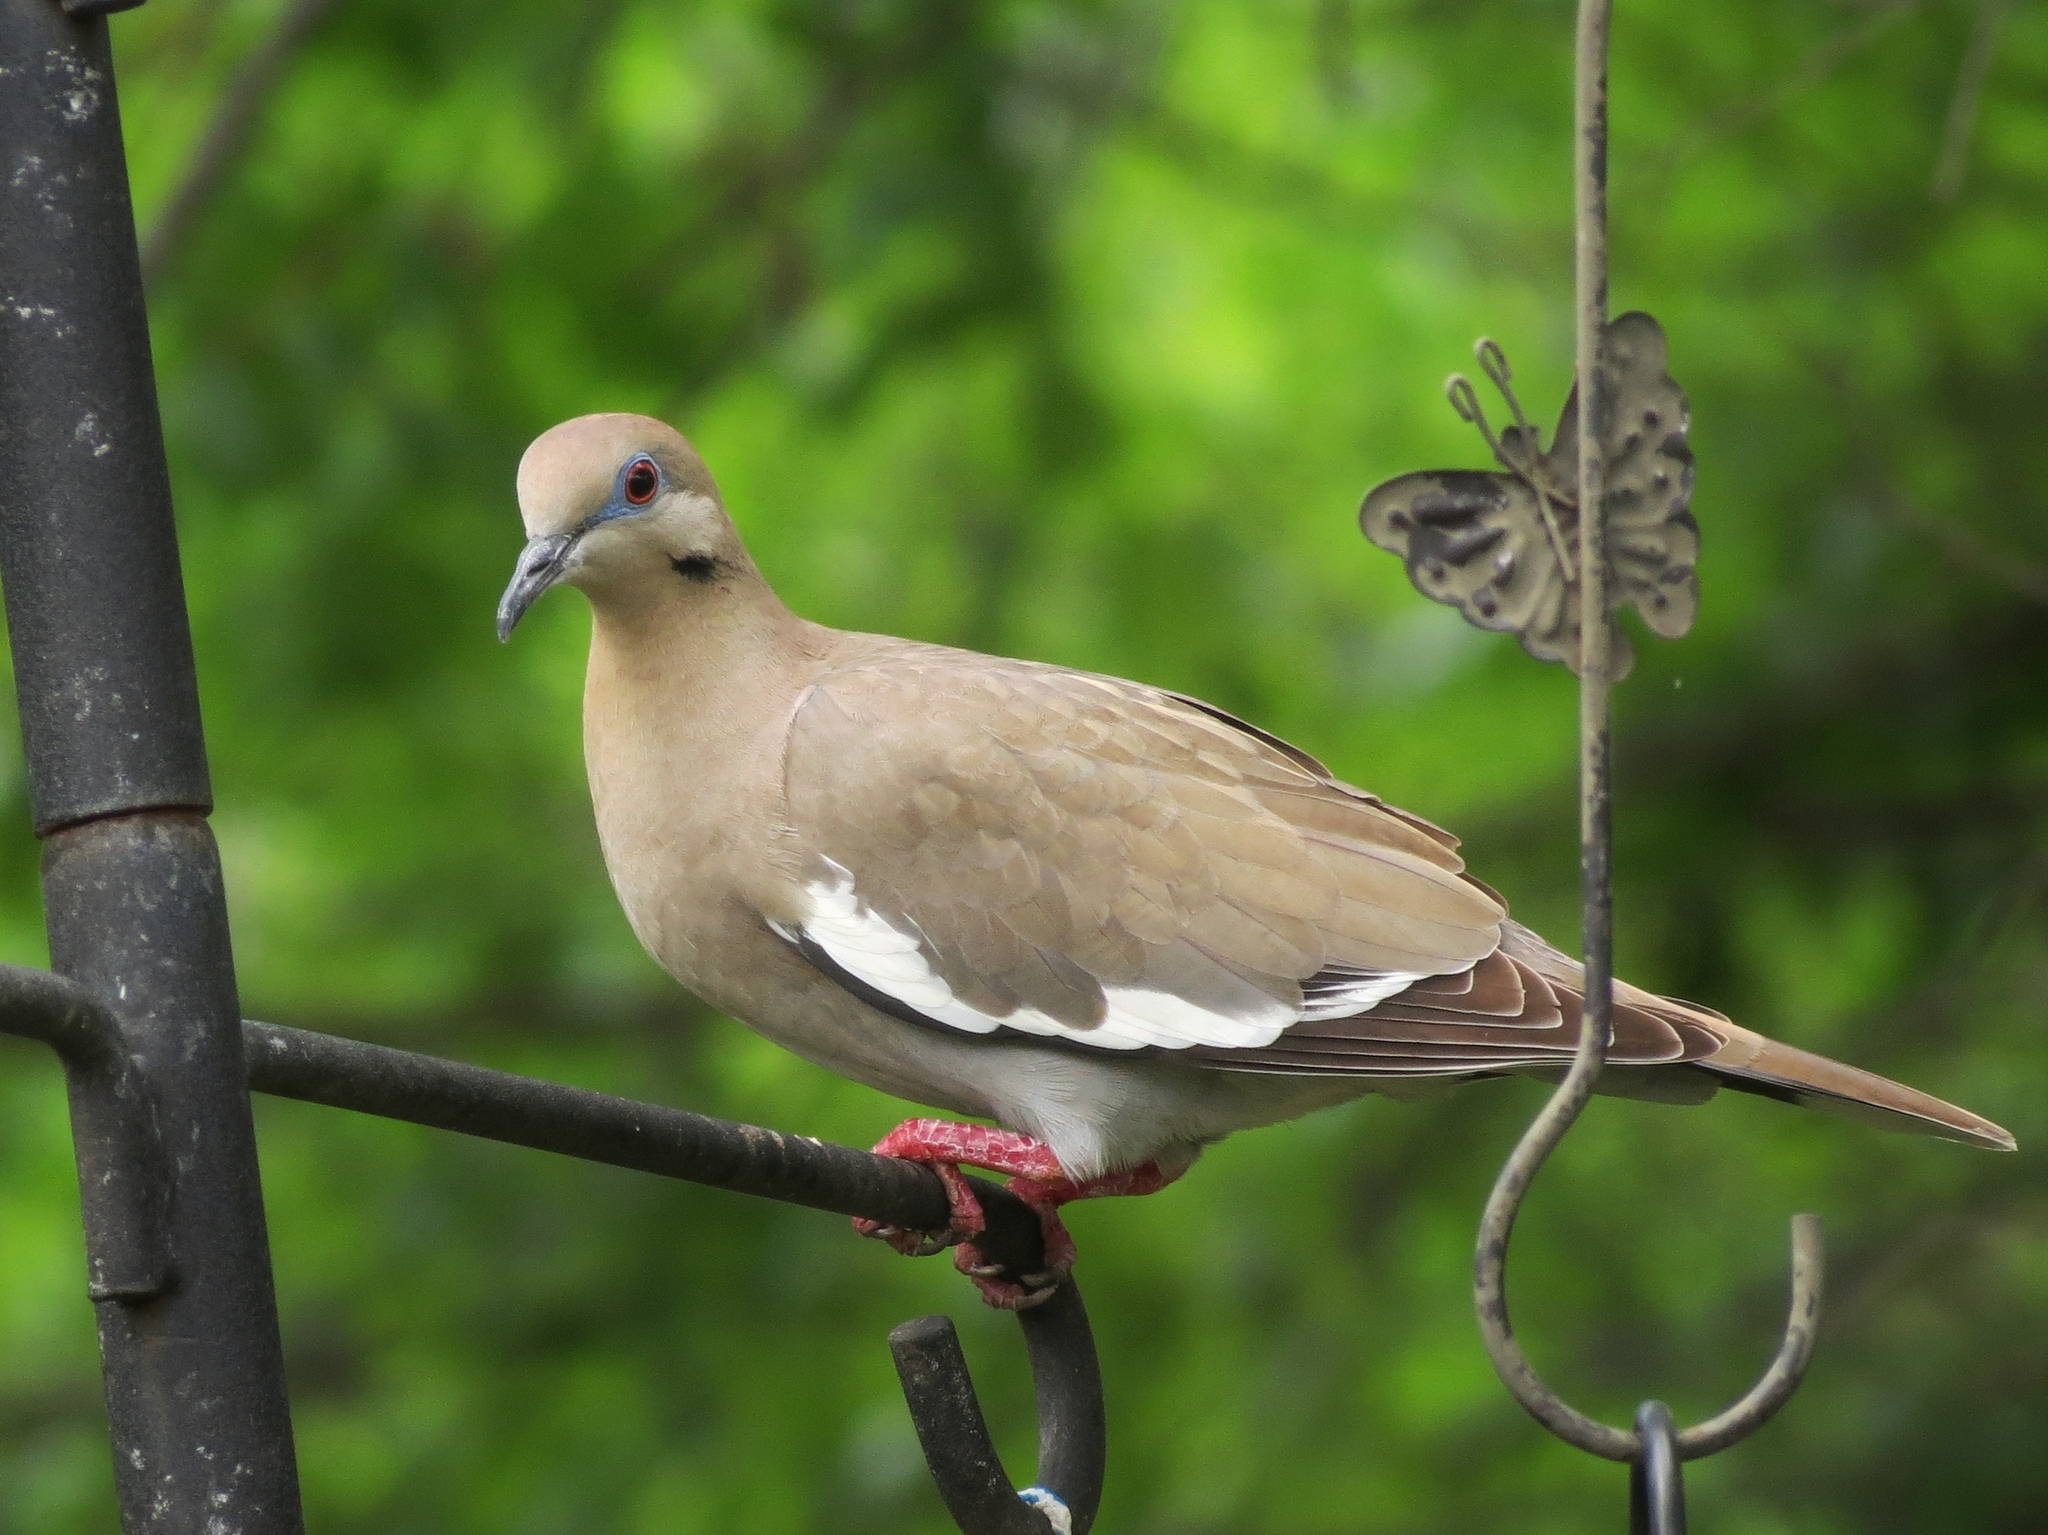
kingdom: Animalia
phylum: Chordata
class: Aves
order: Columbiformes
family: Columbidae
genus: Zenaida
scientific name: Zenaida asiatica
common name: White-winged dove
